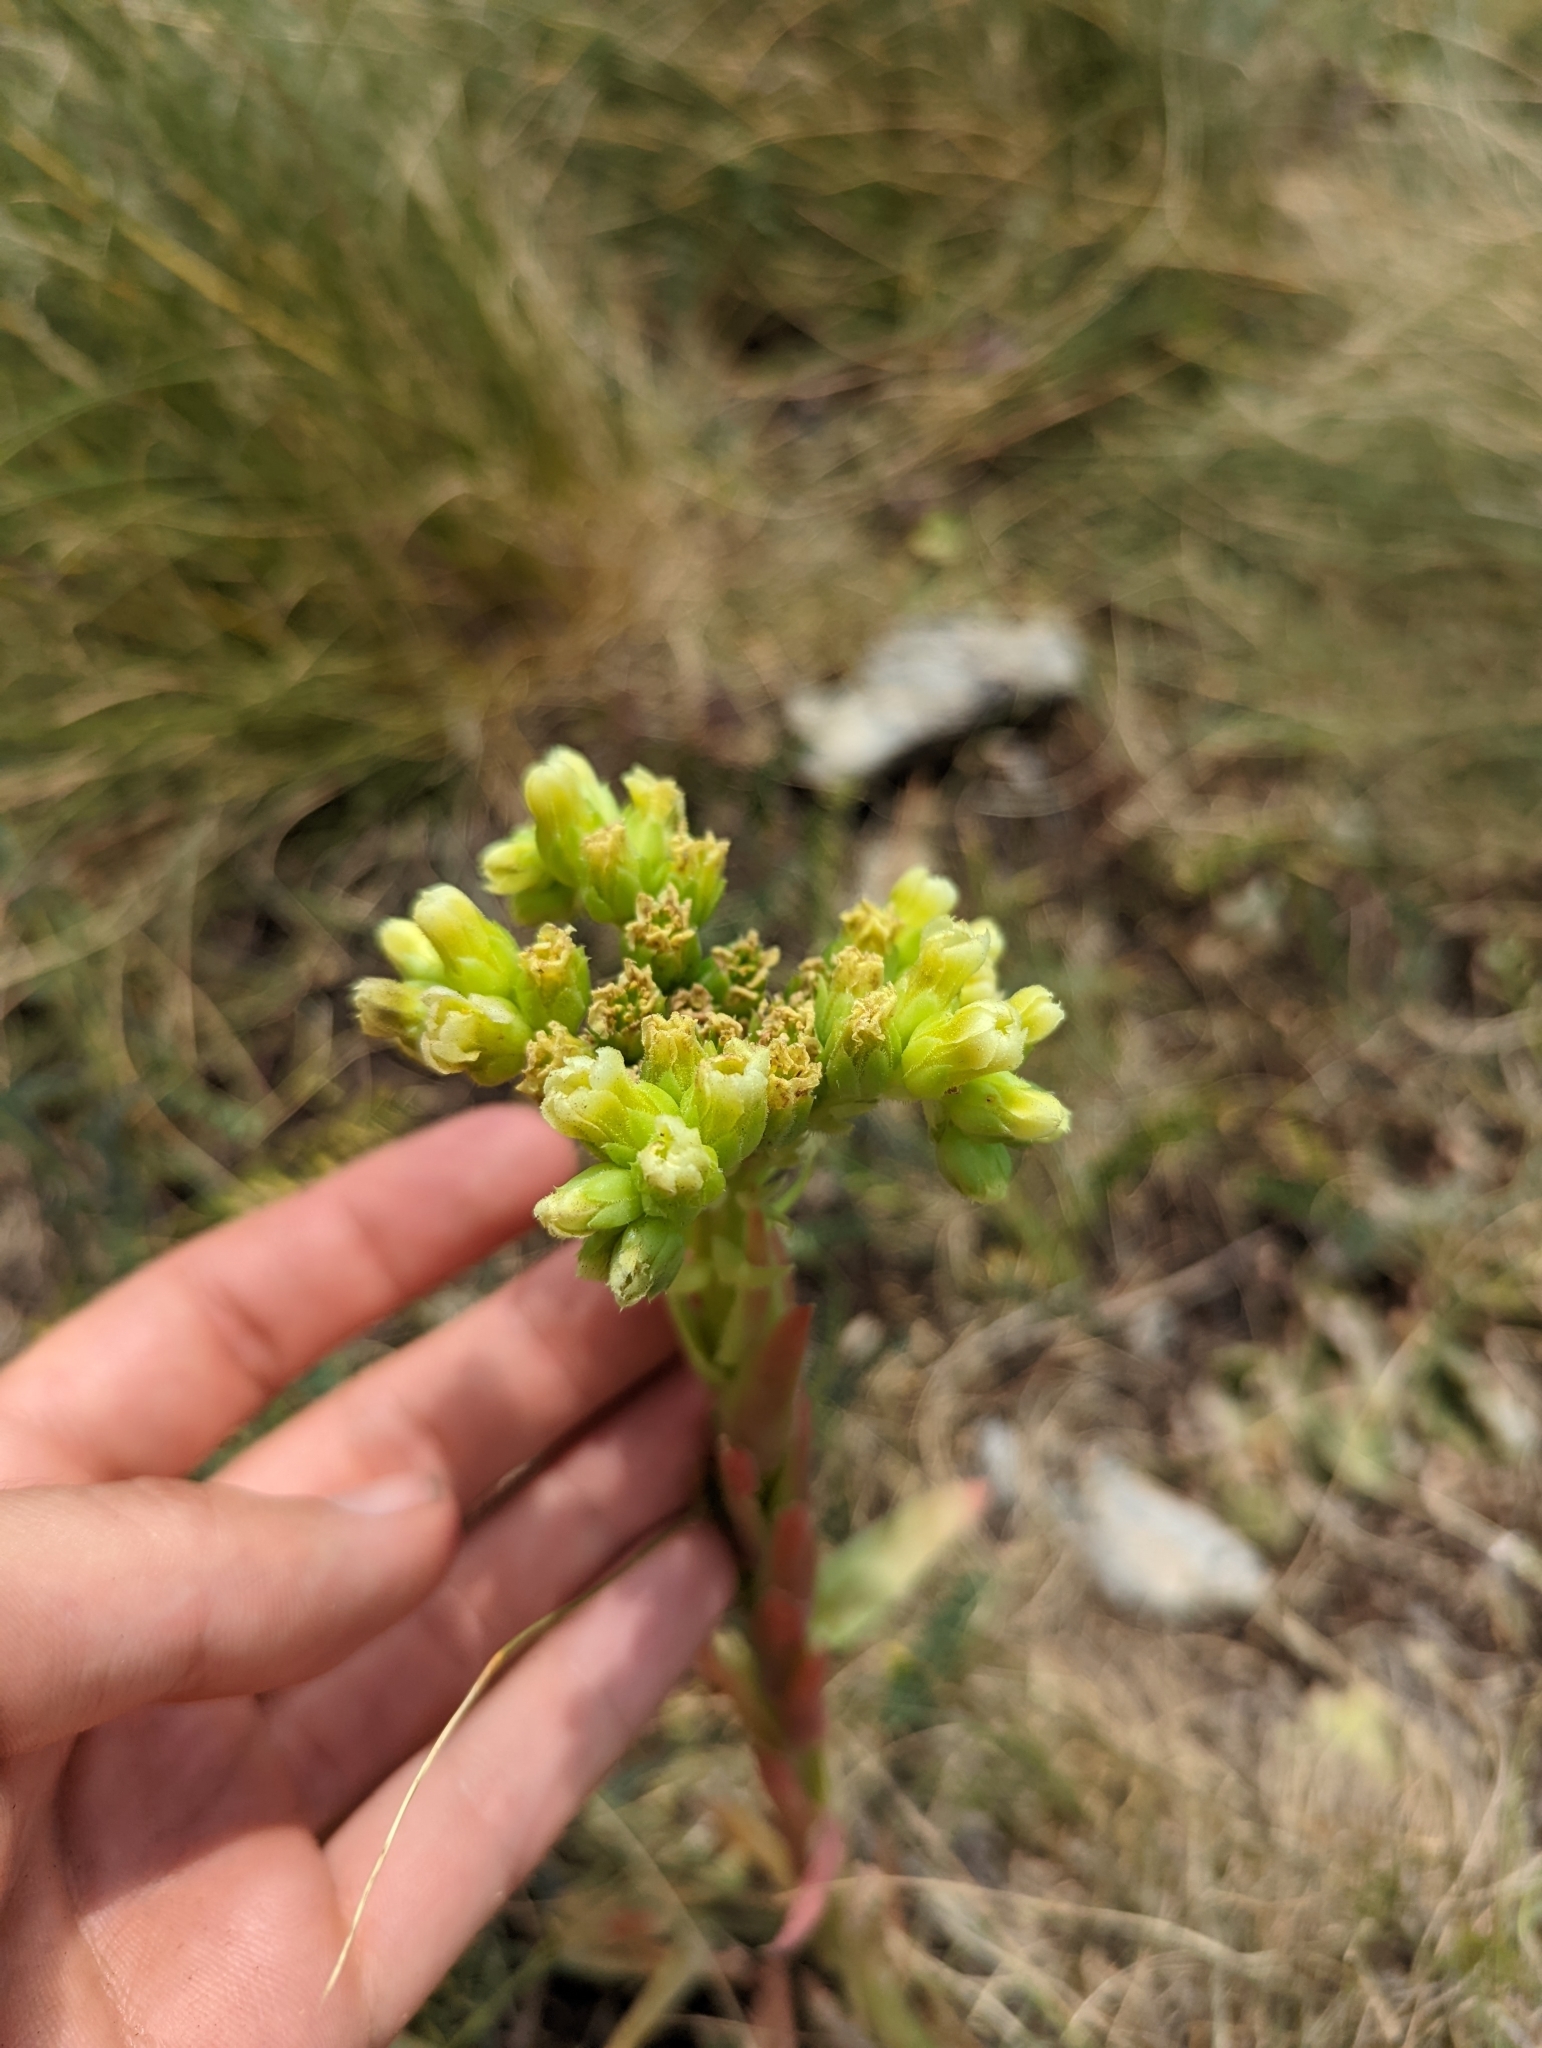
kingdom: Plantae
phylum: Tracheophyta
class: Magnoliopsida
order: Saxifragales
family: Crassulaceae
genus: Sempervivum
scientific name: Sempervivum heuffelii
